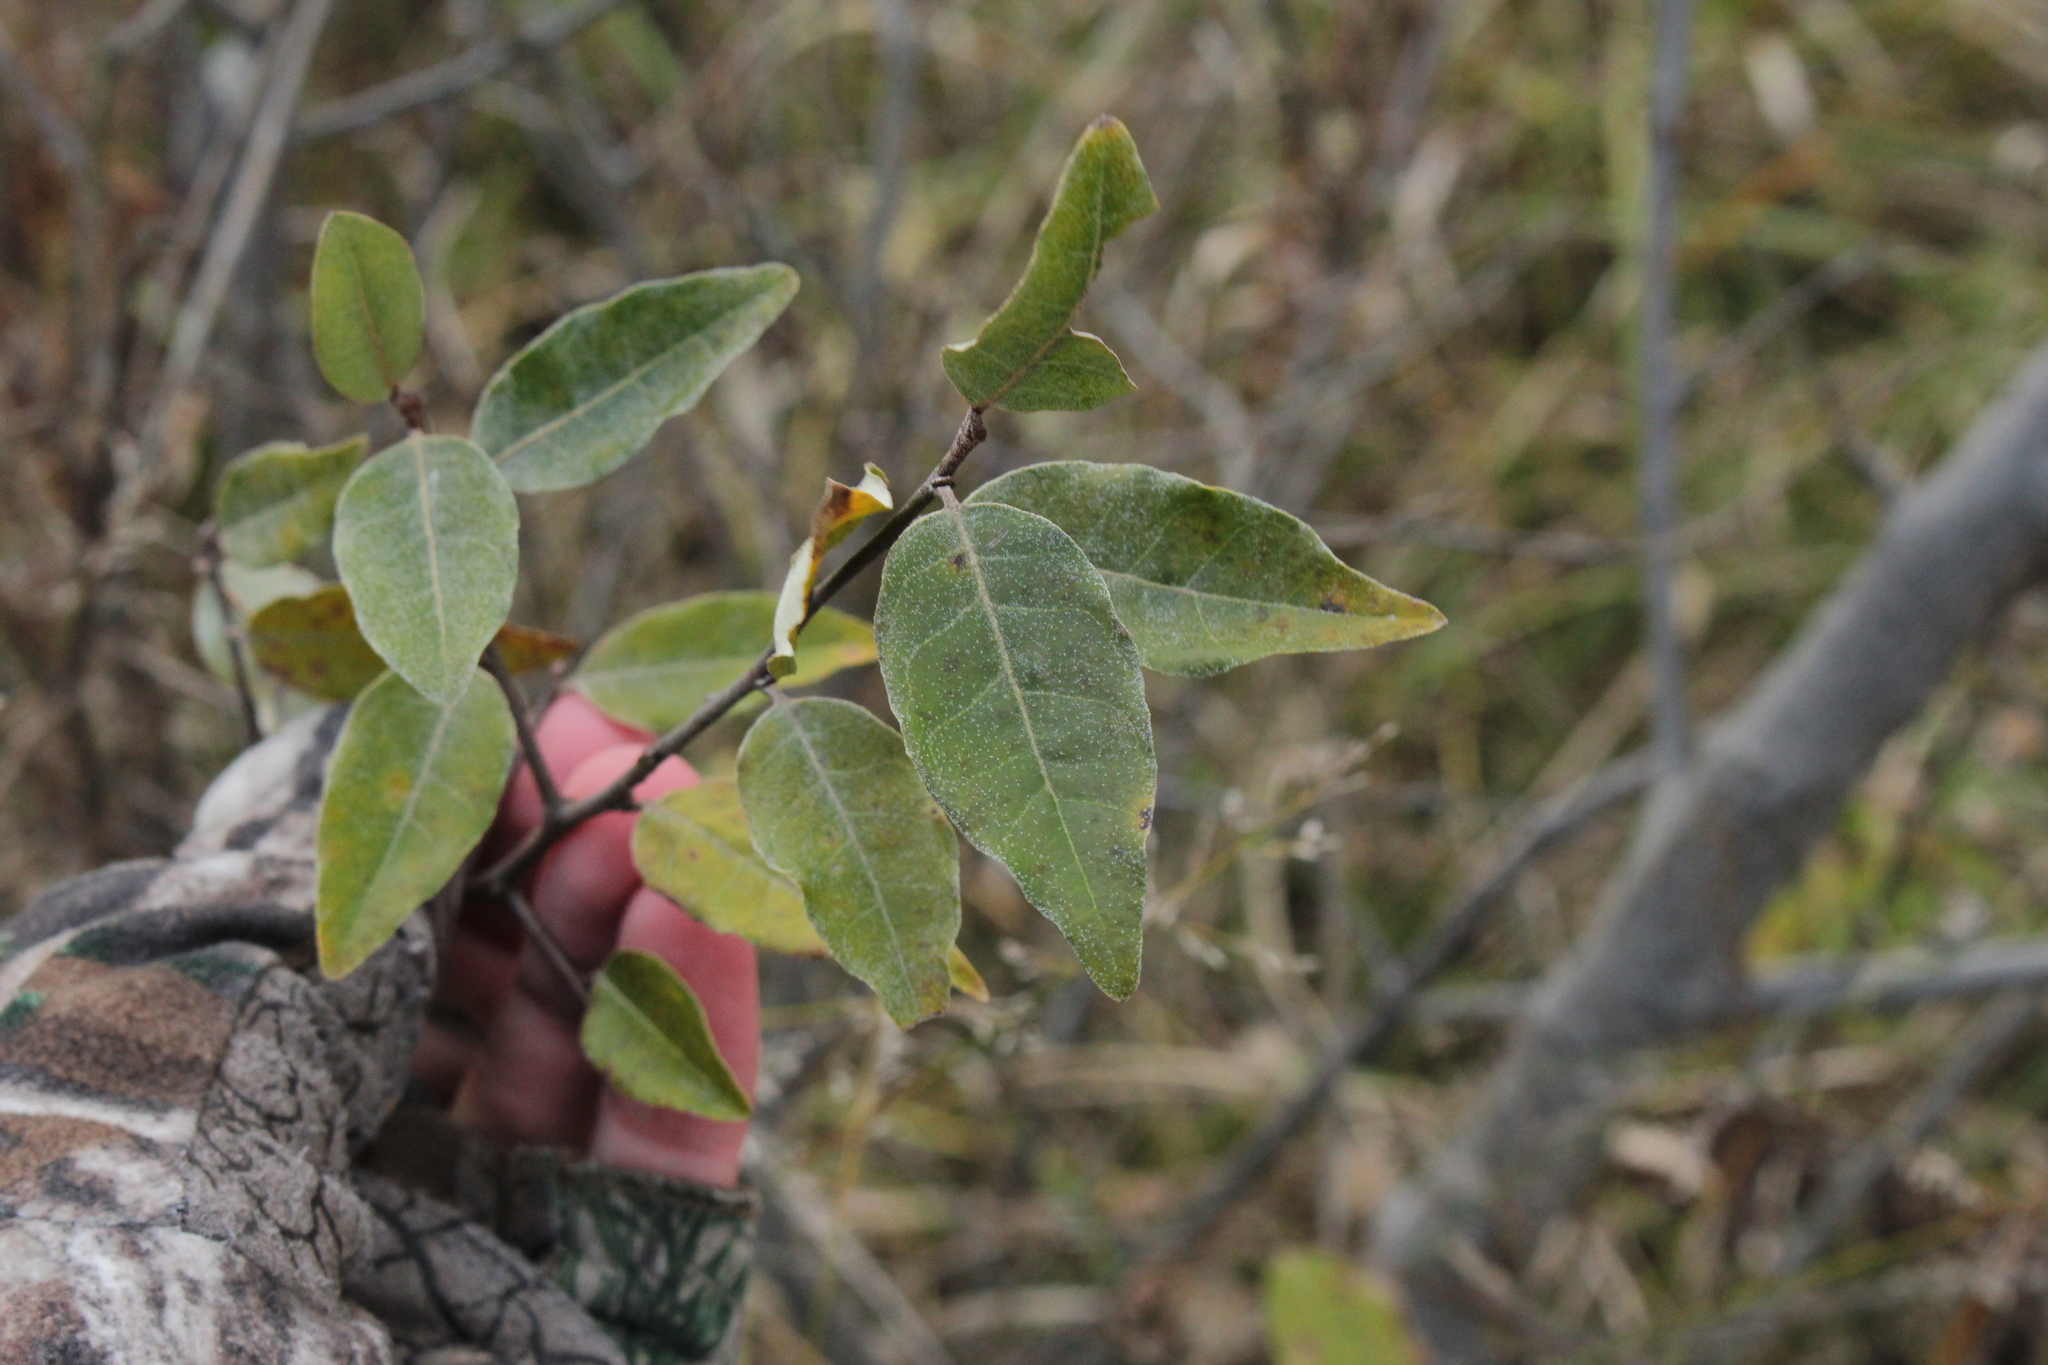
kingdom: Plantae
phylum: Tracheophyta
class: Magnoliopsida
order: Rosales
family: Elaeagnaceae
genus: Elaeagnus
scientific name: Elaeagnus umbellata
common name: Autumn olive
